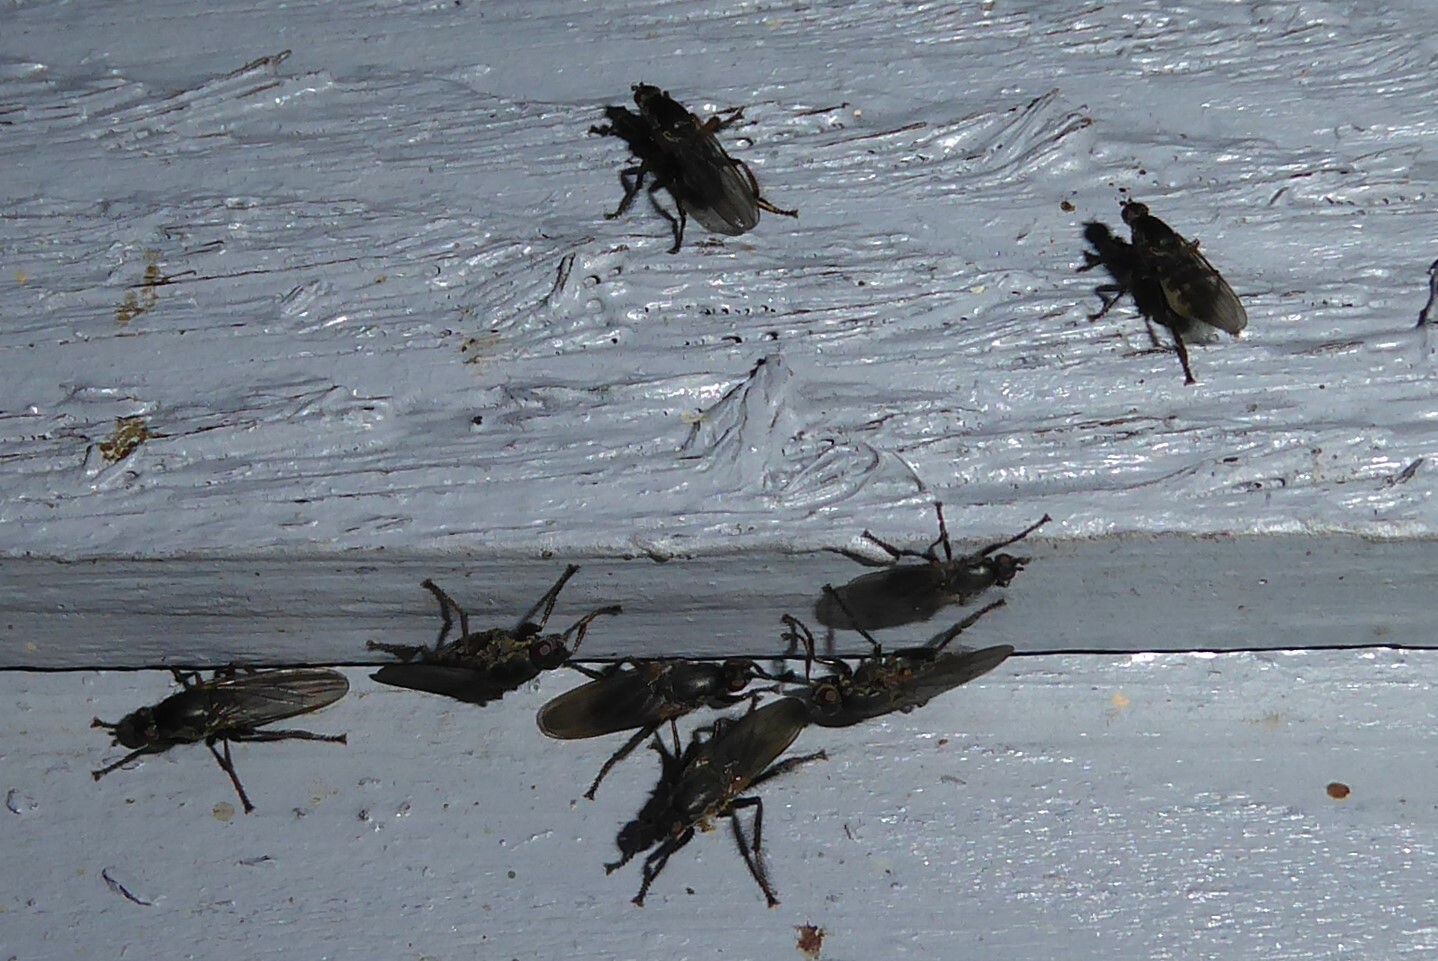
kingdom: Animalia
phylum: Arthropoda
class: Insecta
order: Diptera
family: Coelopidae
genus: Chaetocoelopa
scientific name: Chaetocoelopa littoralis
